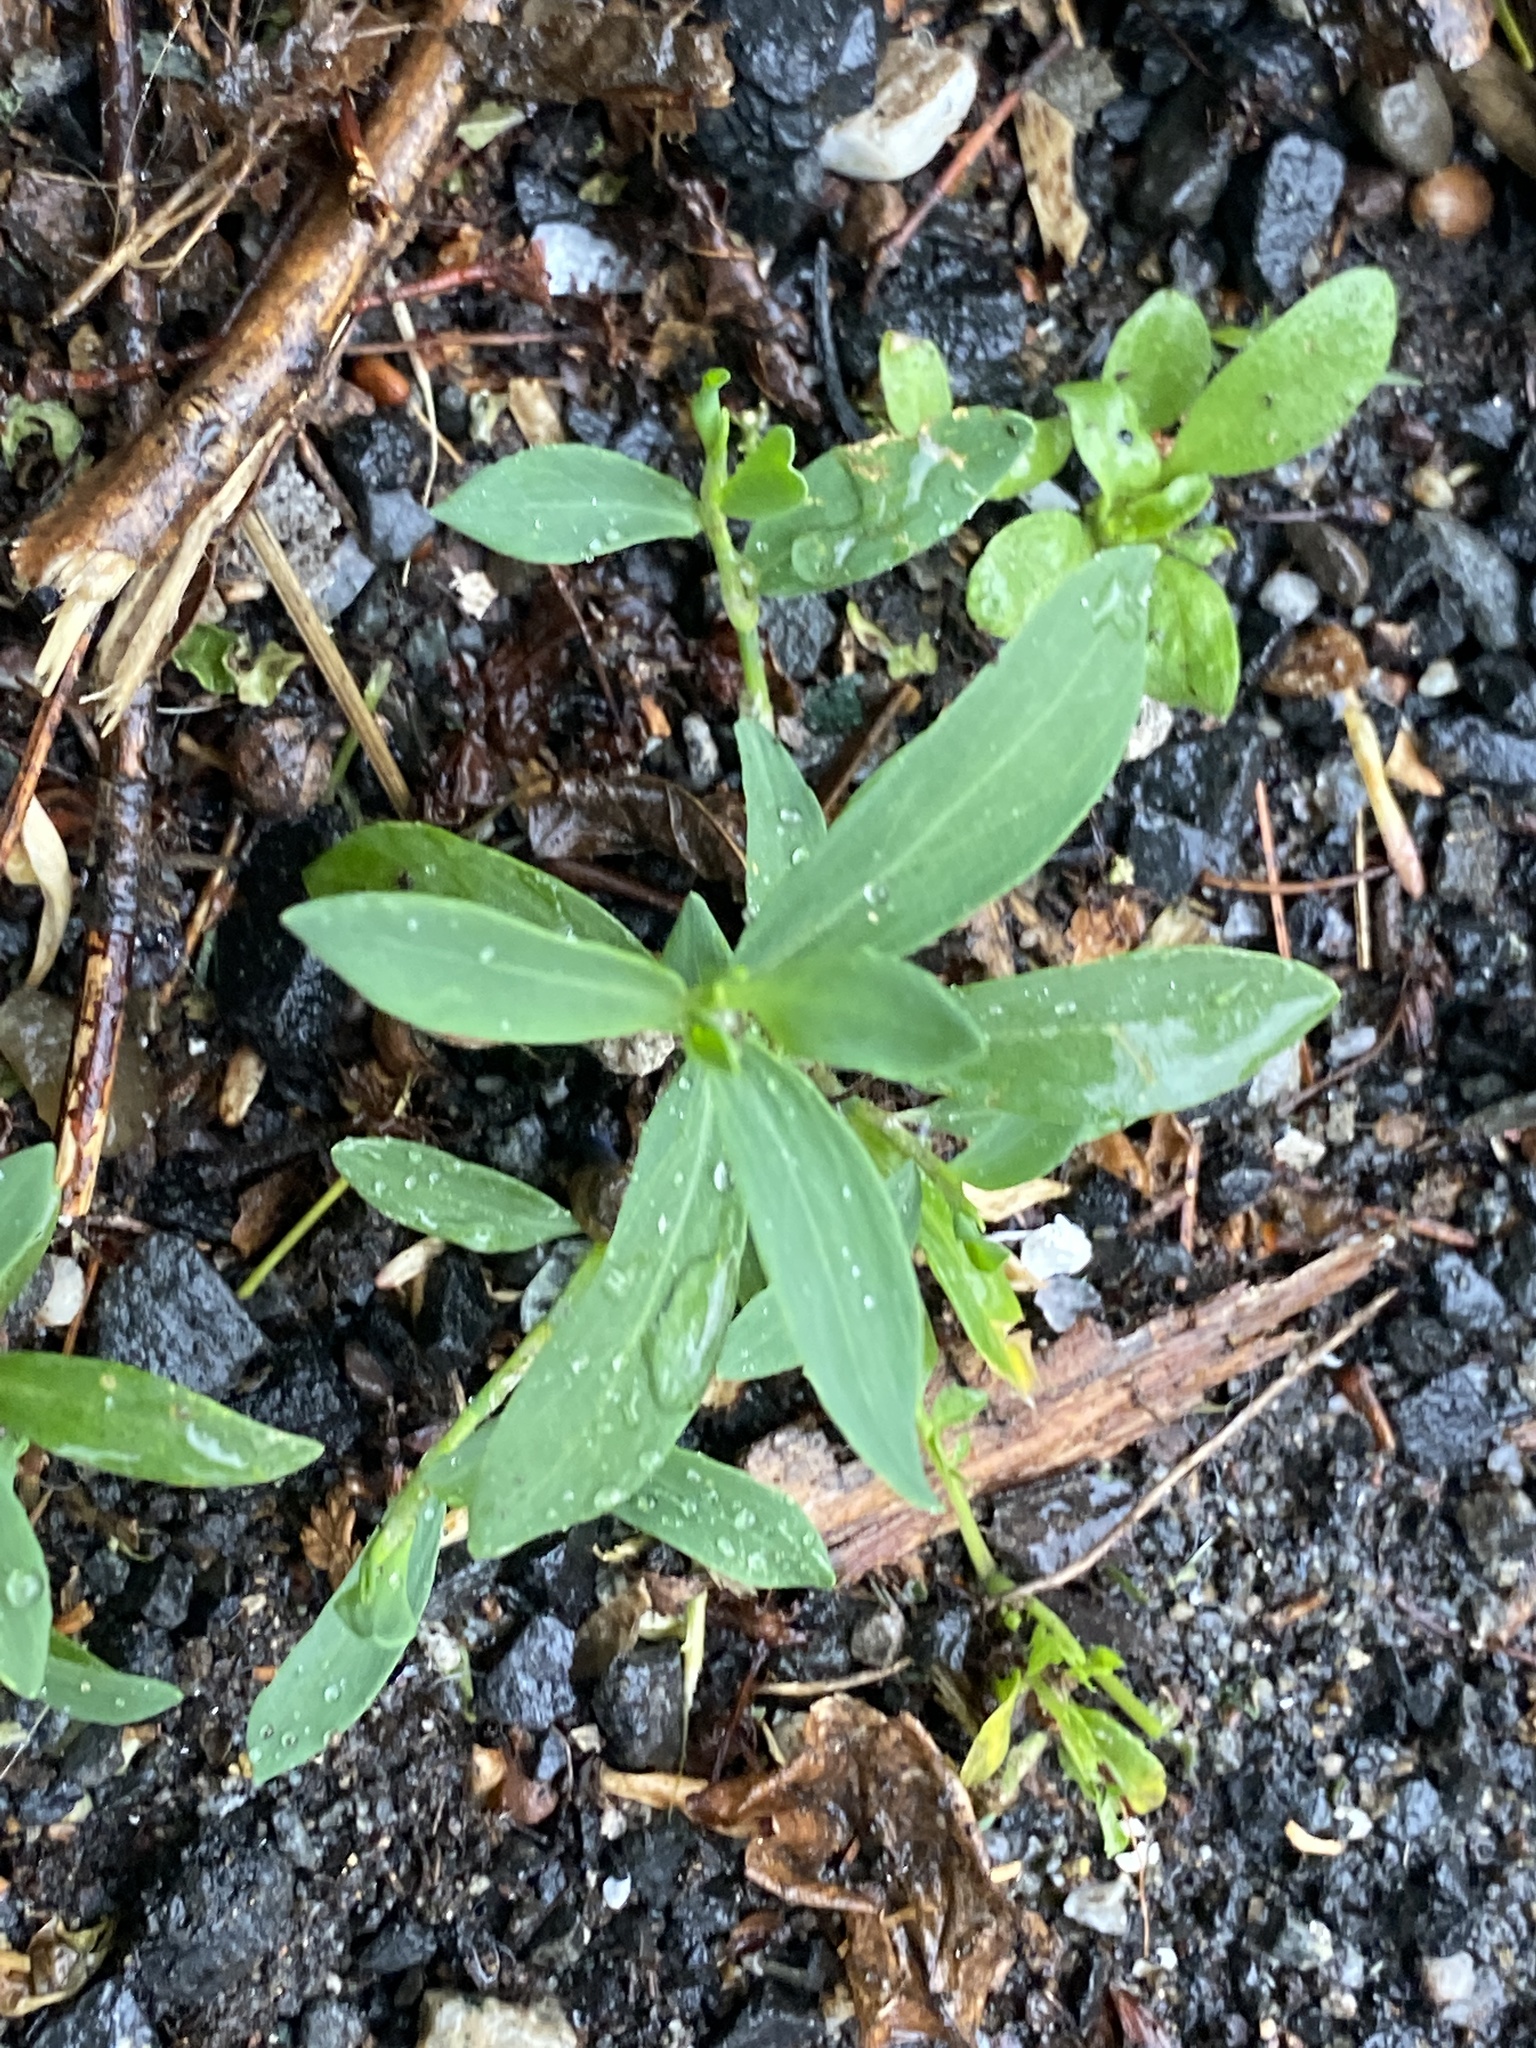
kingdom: Plantae
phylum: Tracheophyta
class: Magnoliopsida
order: Caryophyllales
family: Polygonaceae
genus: Polygonum
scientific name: Polygonum aviculare
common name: Prostrate knotweed
